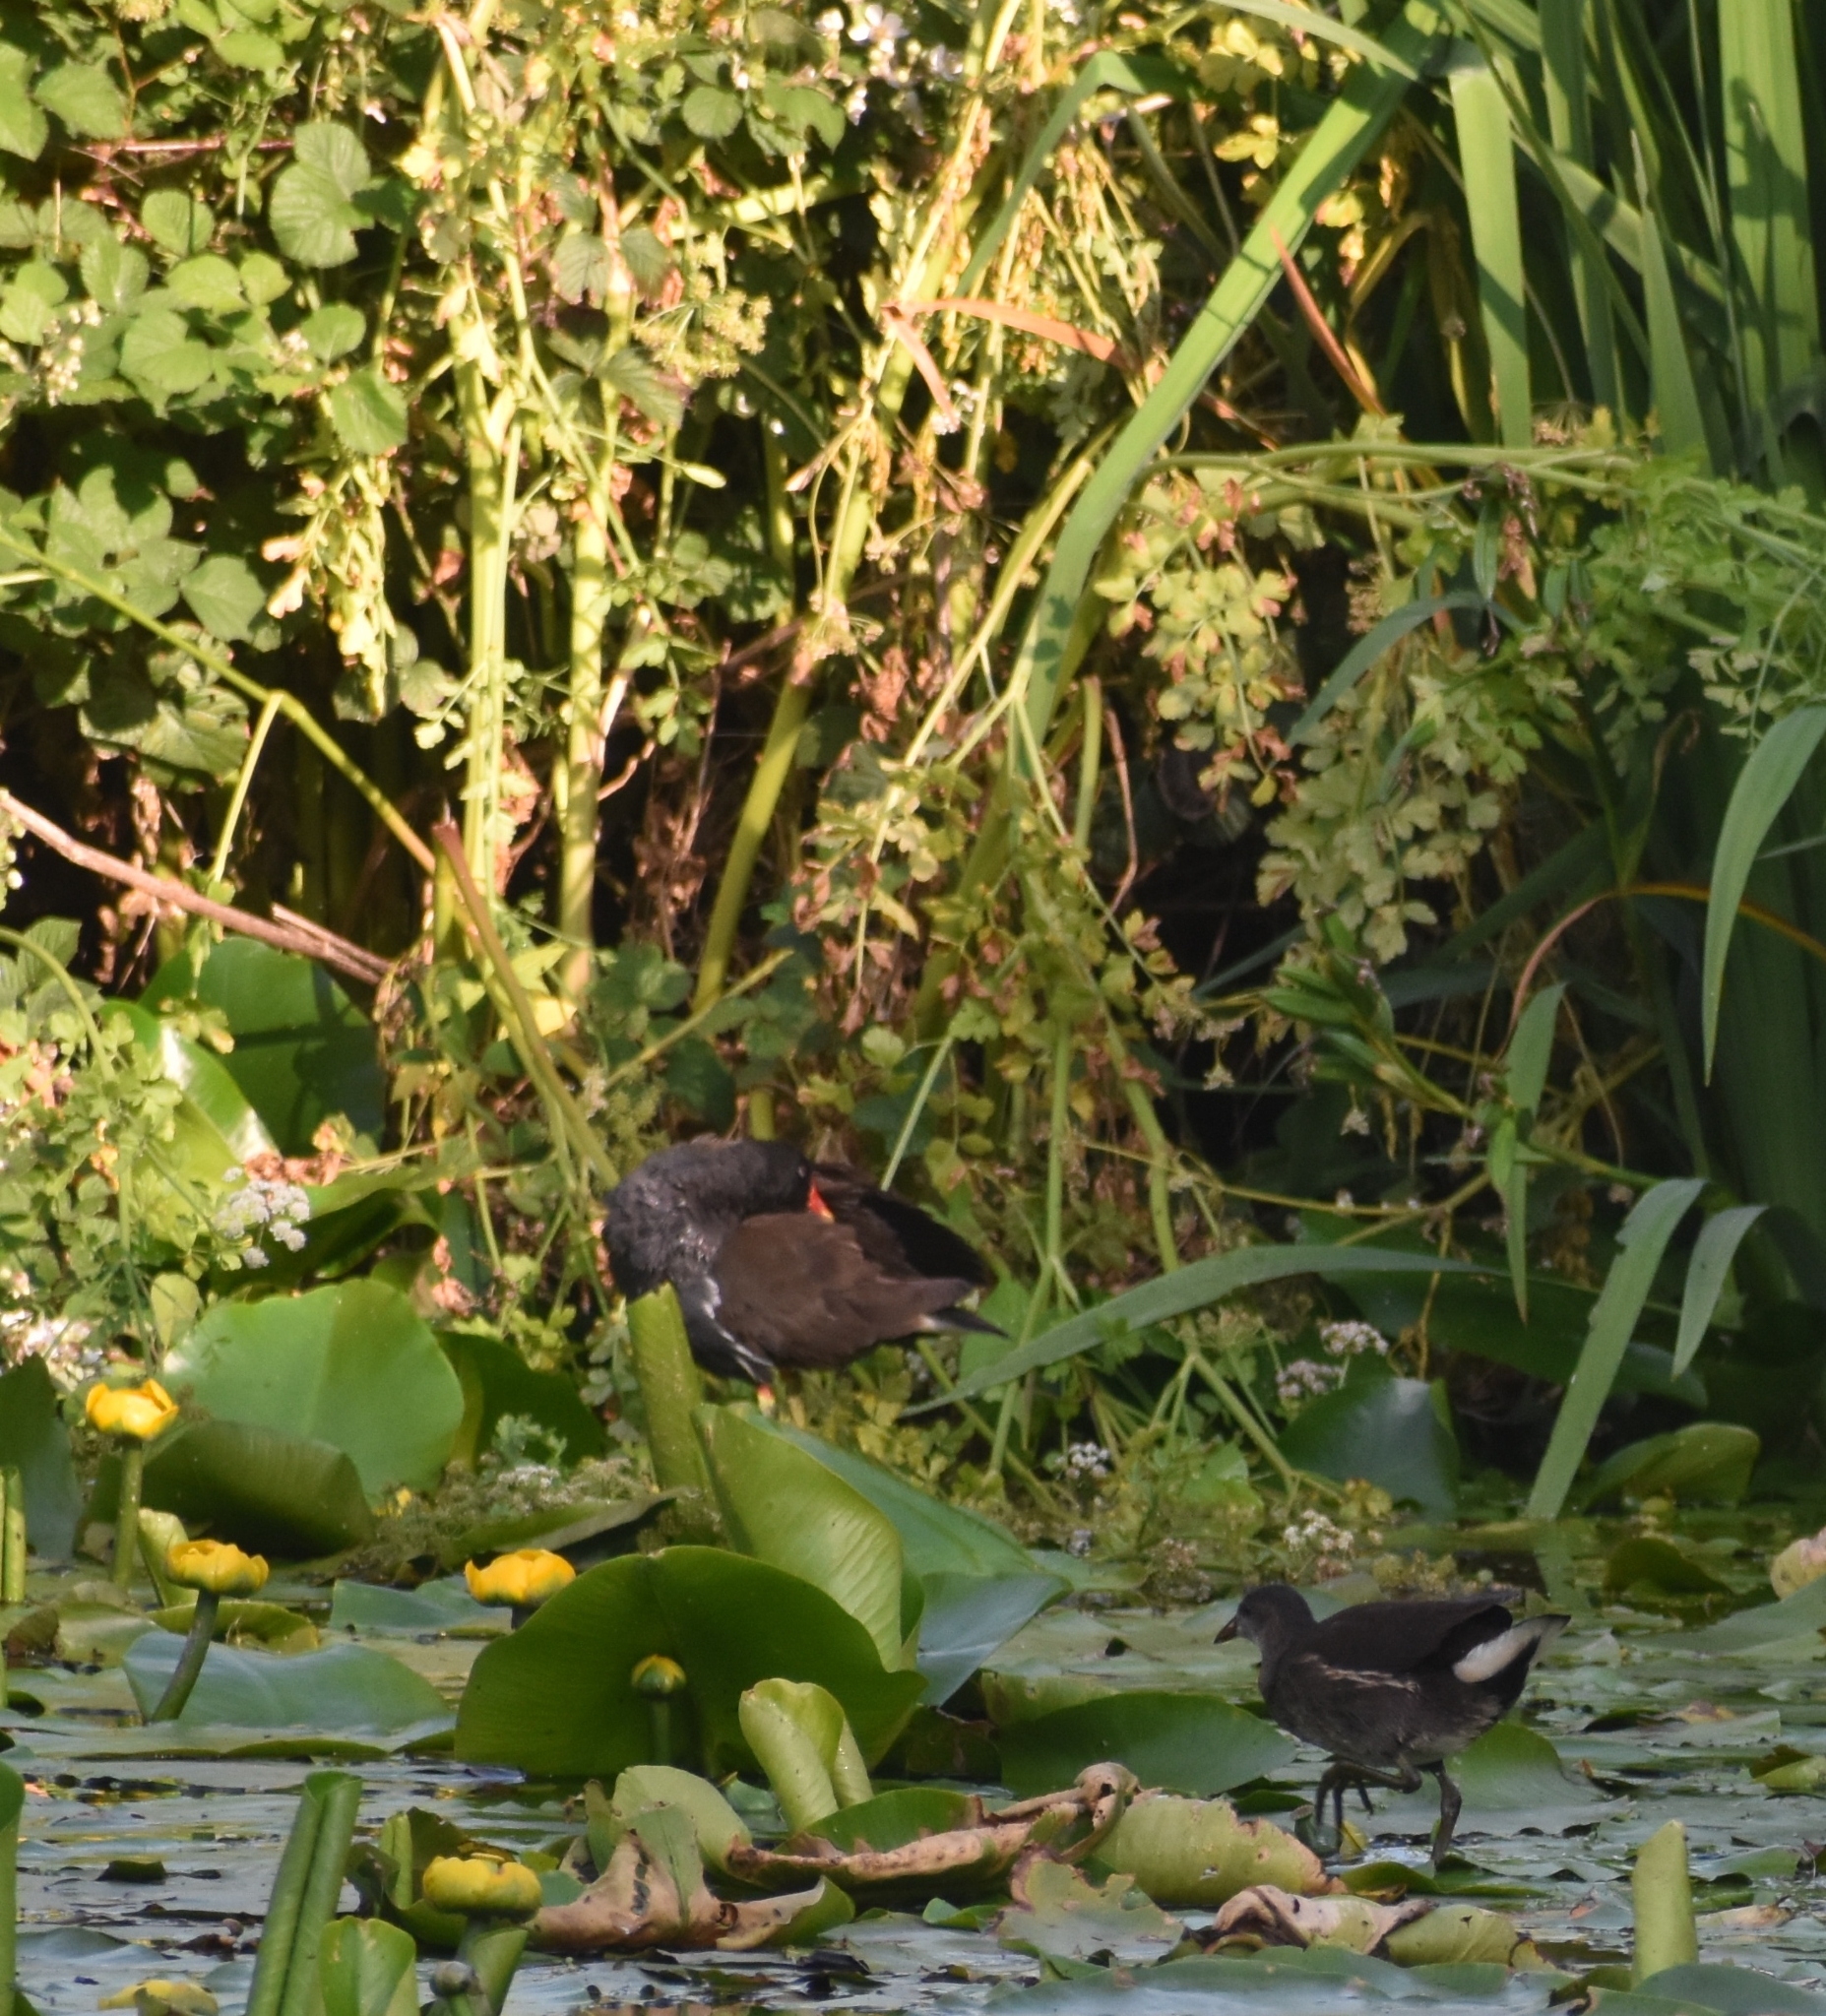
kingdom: Animalia
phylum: Chordata
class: Aves
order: Gruiformes
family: Rallidae
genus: Gallinula
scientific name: Gallinula chloropus
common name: Common moorhen
